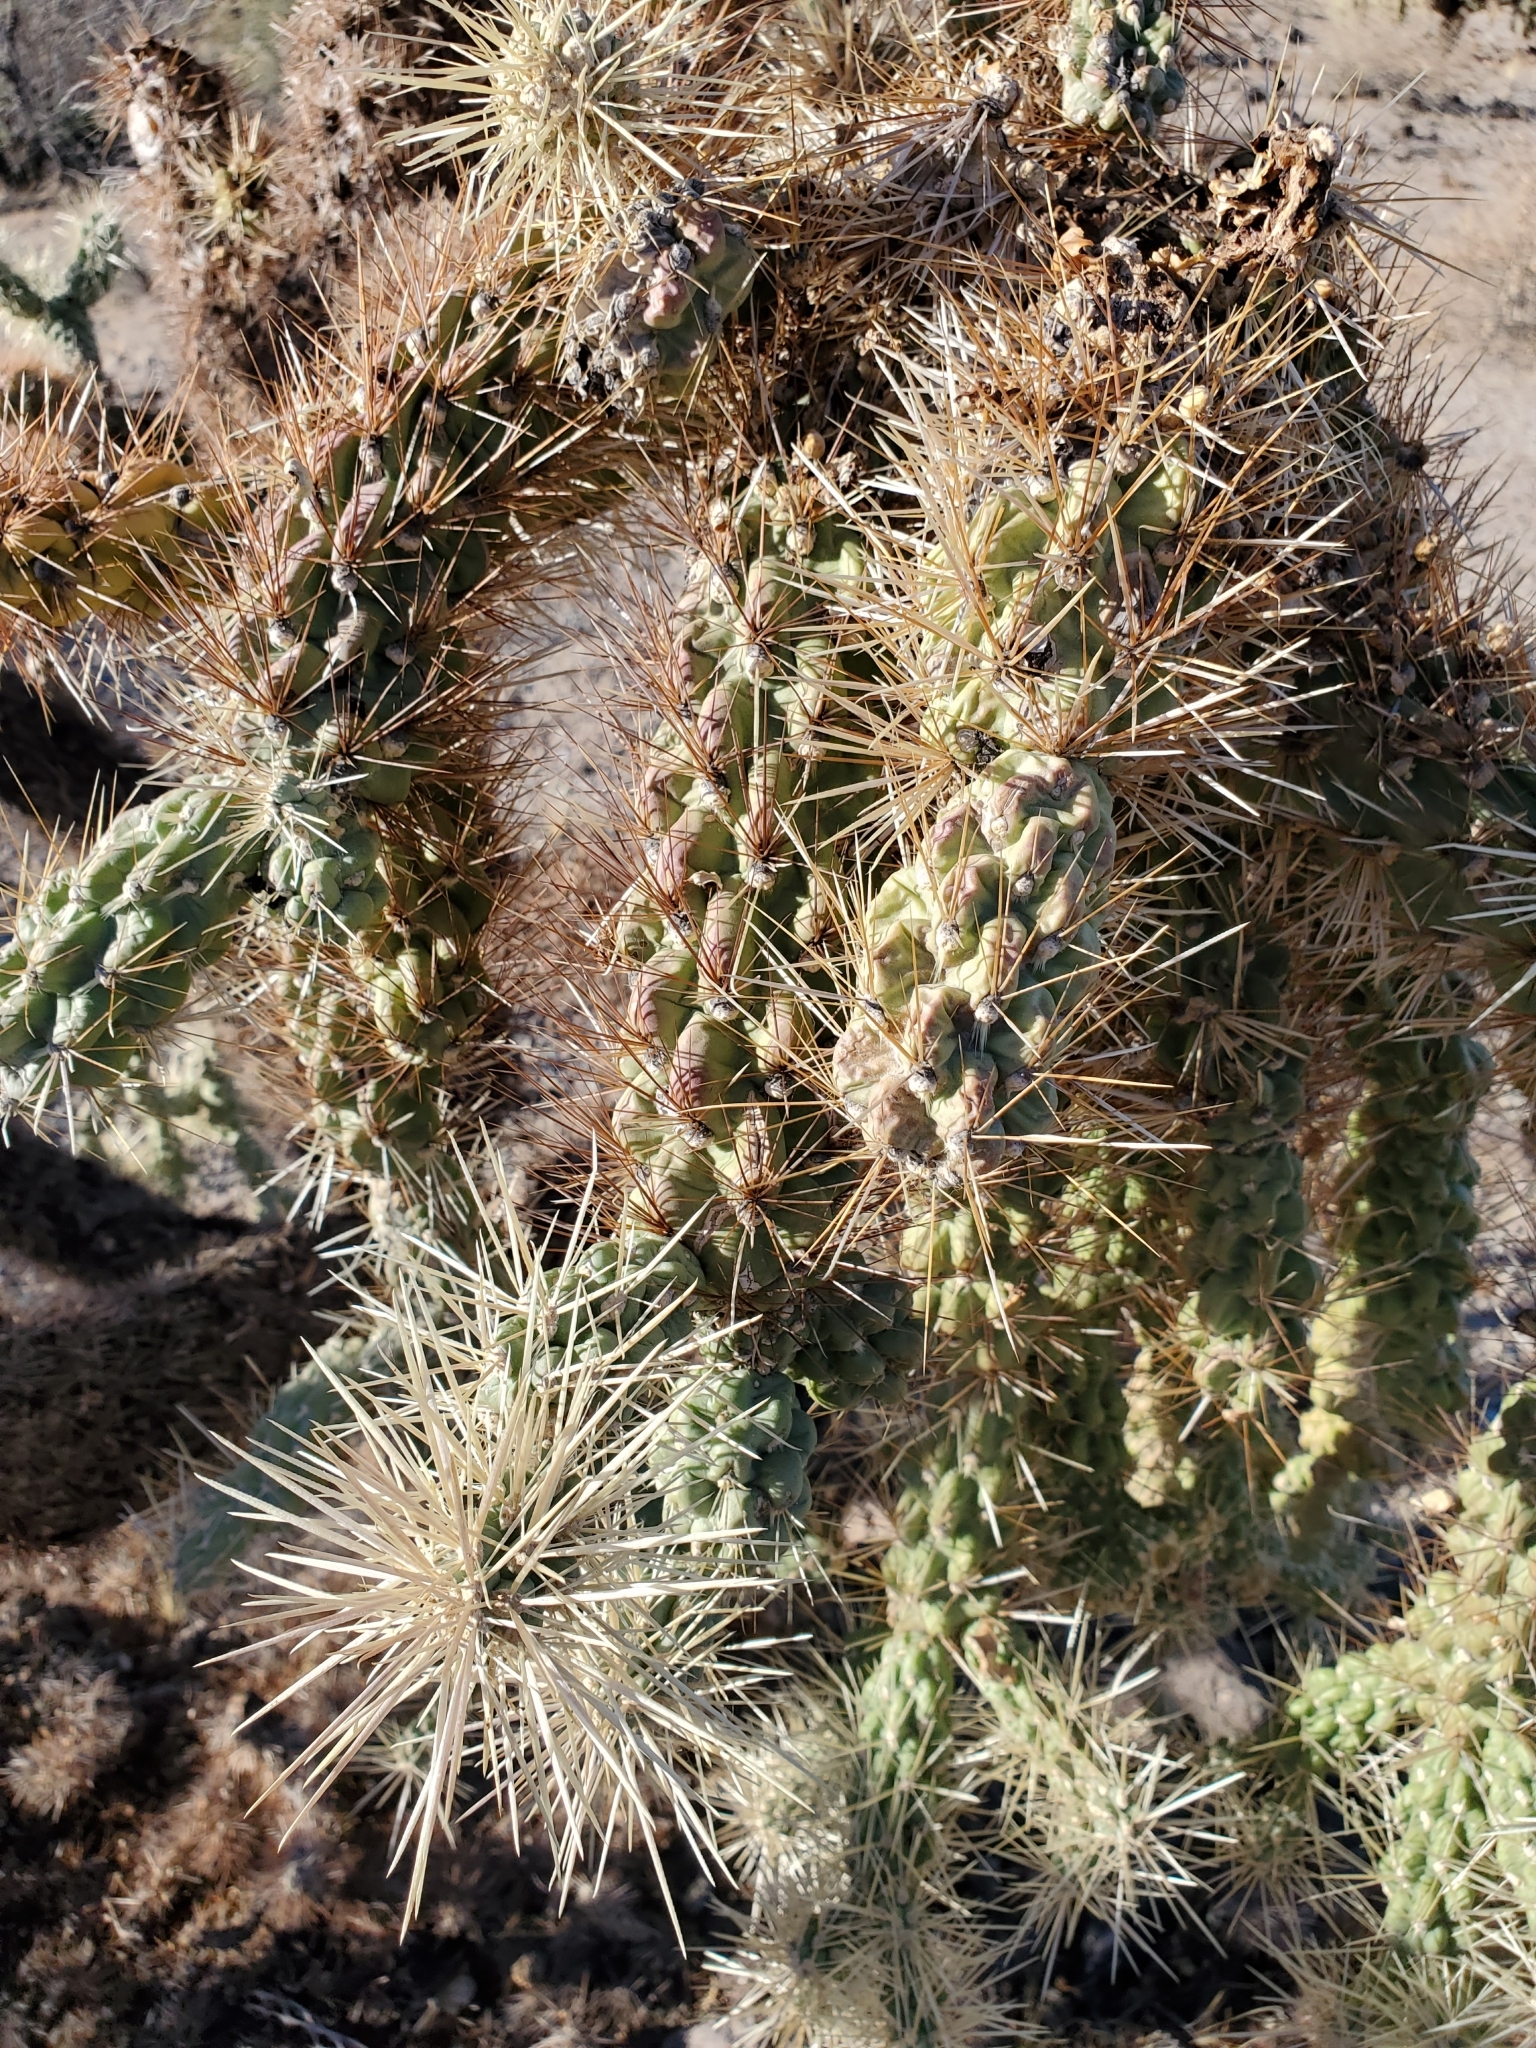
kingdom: Plantae
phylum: Tracheophyta
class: Magnoliopsida
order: Caryophyllales
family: Cactaceae
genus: Cylindropuntia
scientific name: Cylindropuntia fulgida
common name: Jumping cholla
